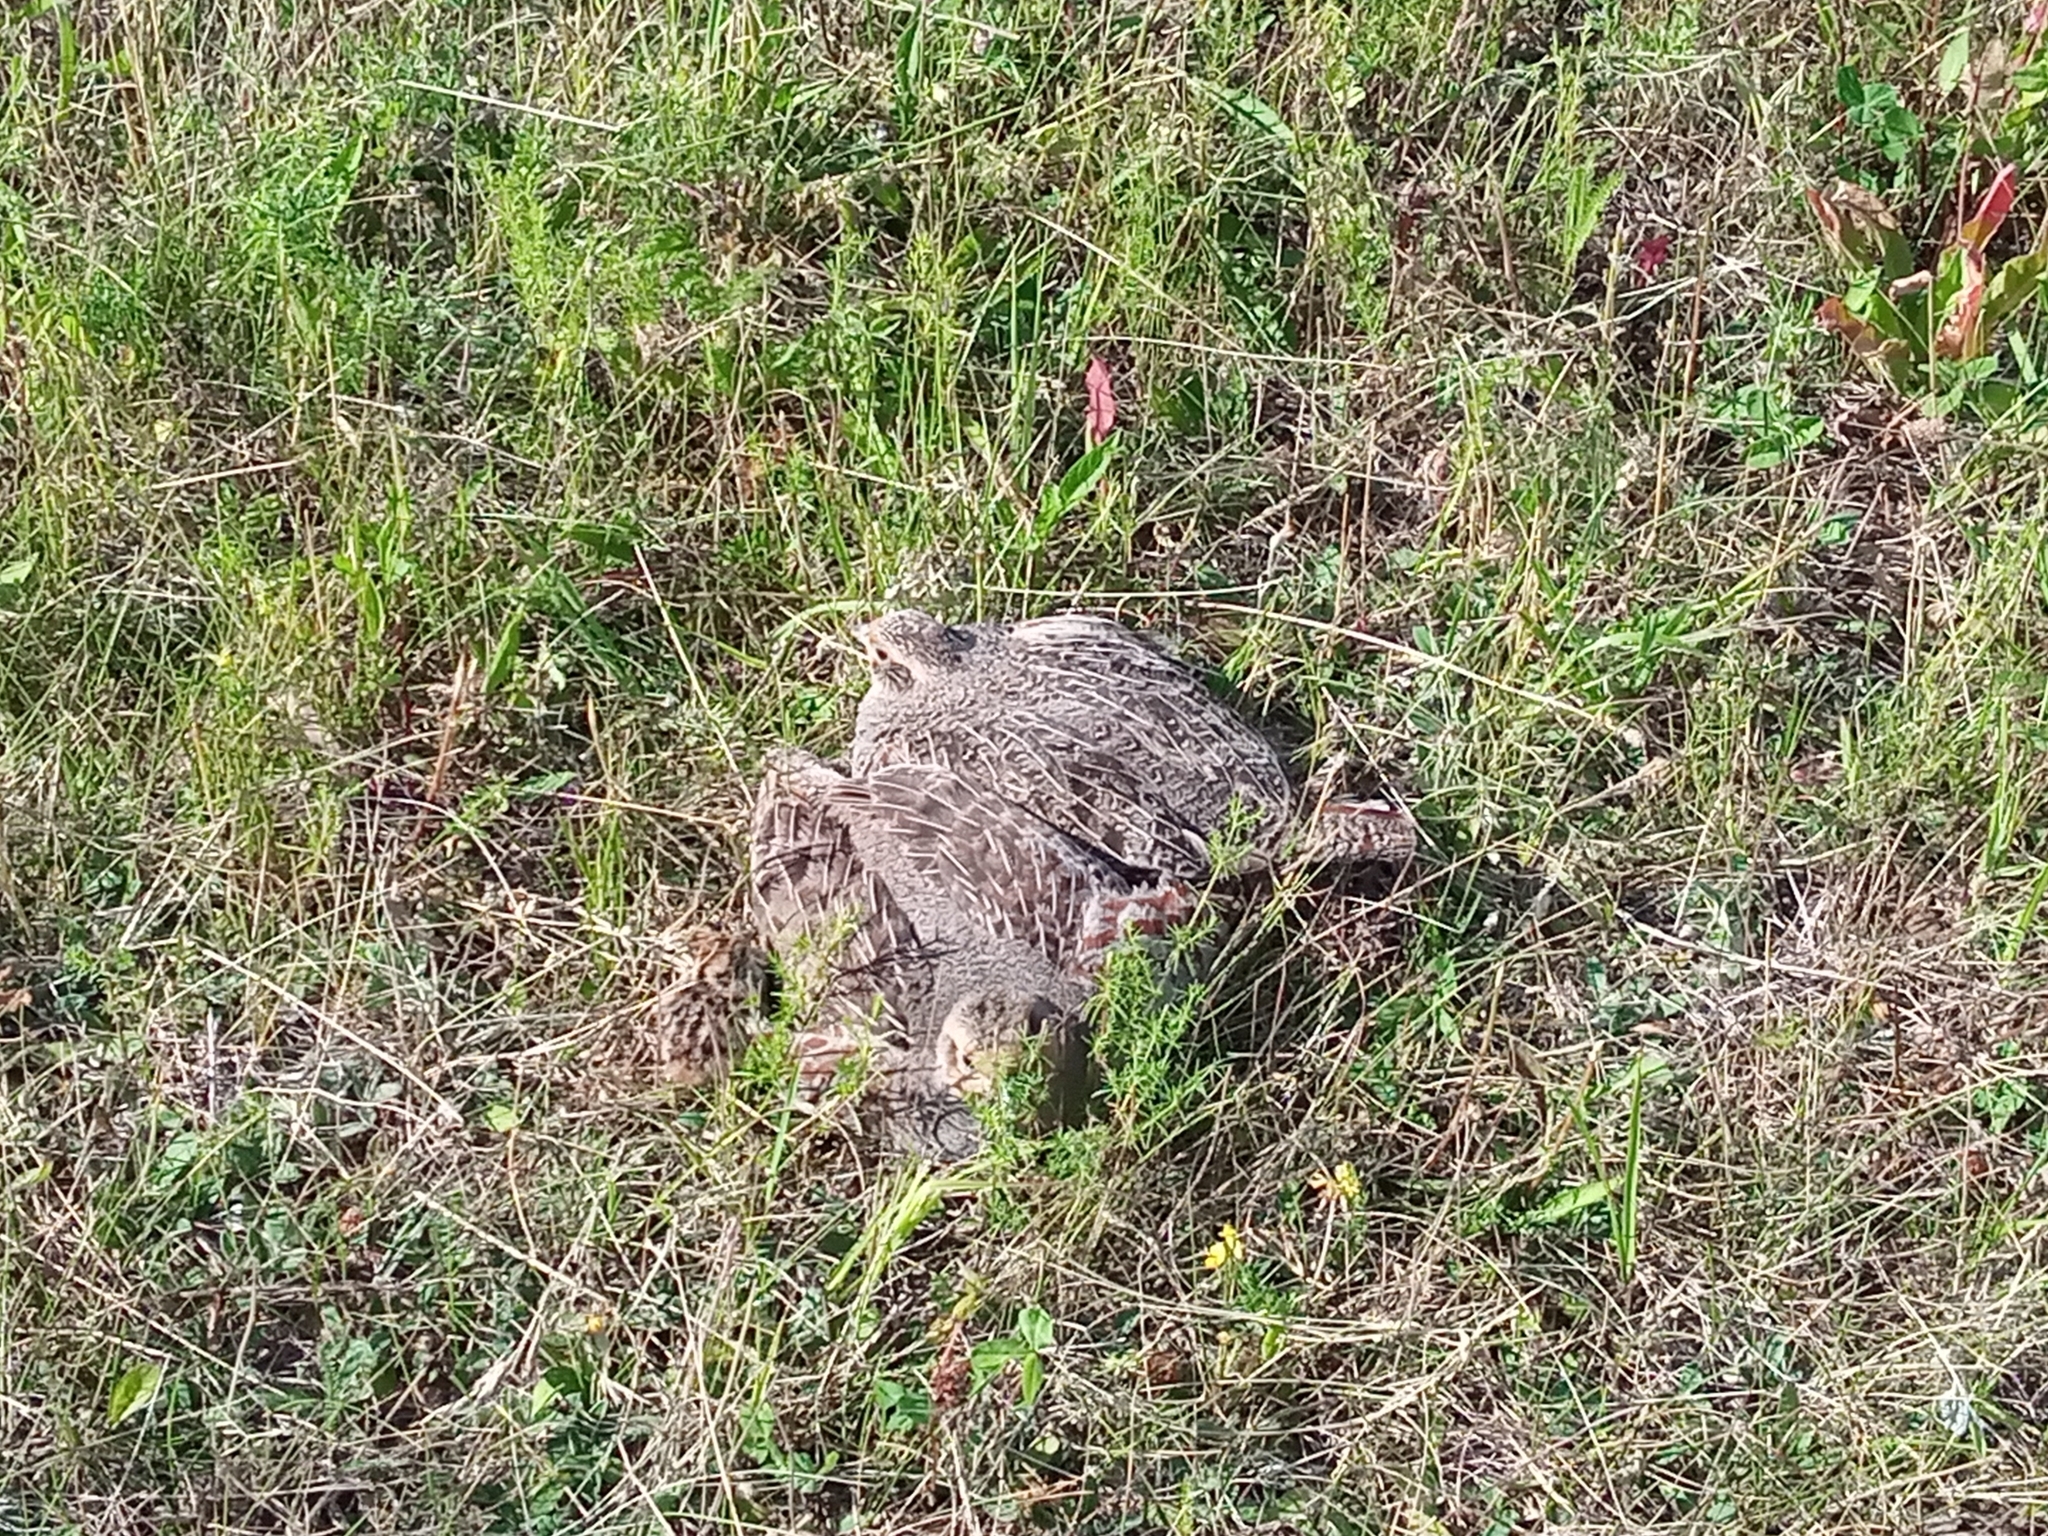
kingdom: Animalia
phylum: Chordata
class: Aves
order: Galliformes
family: Phasianidae
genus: Perdix
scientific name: Perdix perdix
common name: Grey partridge
